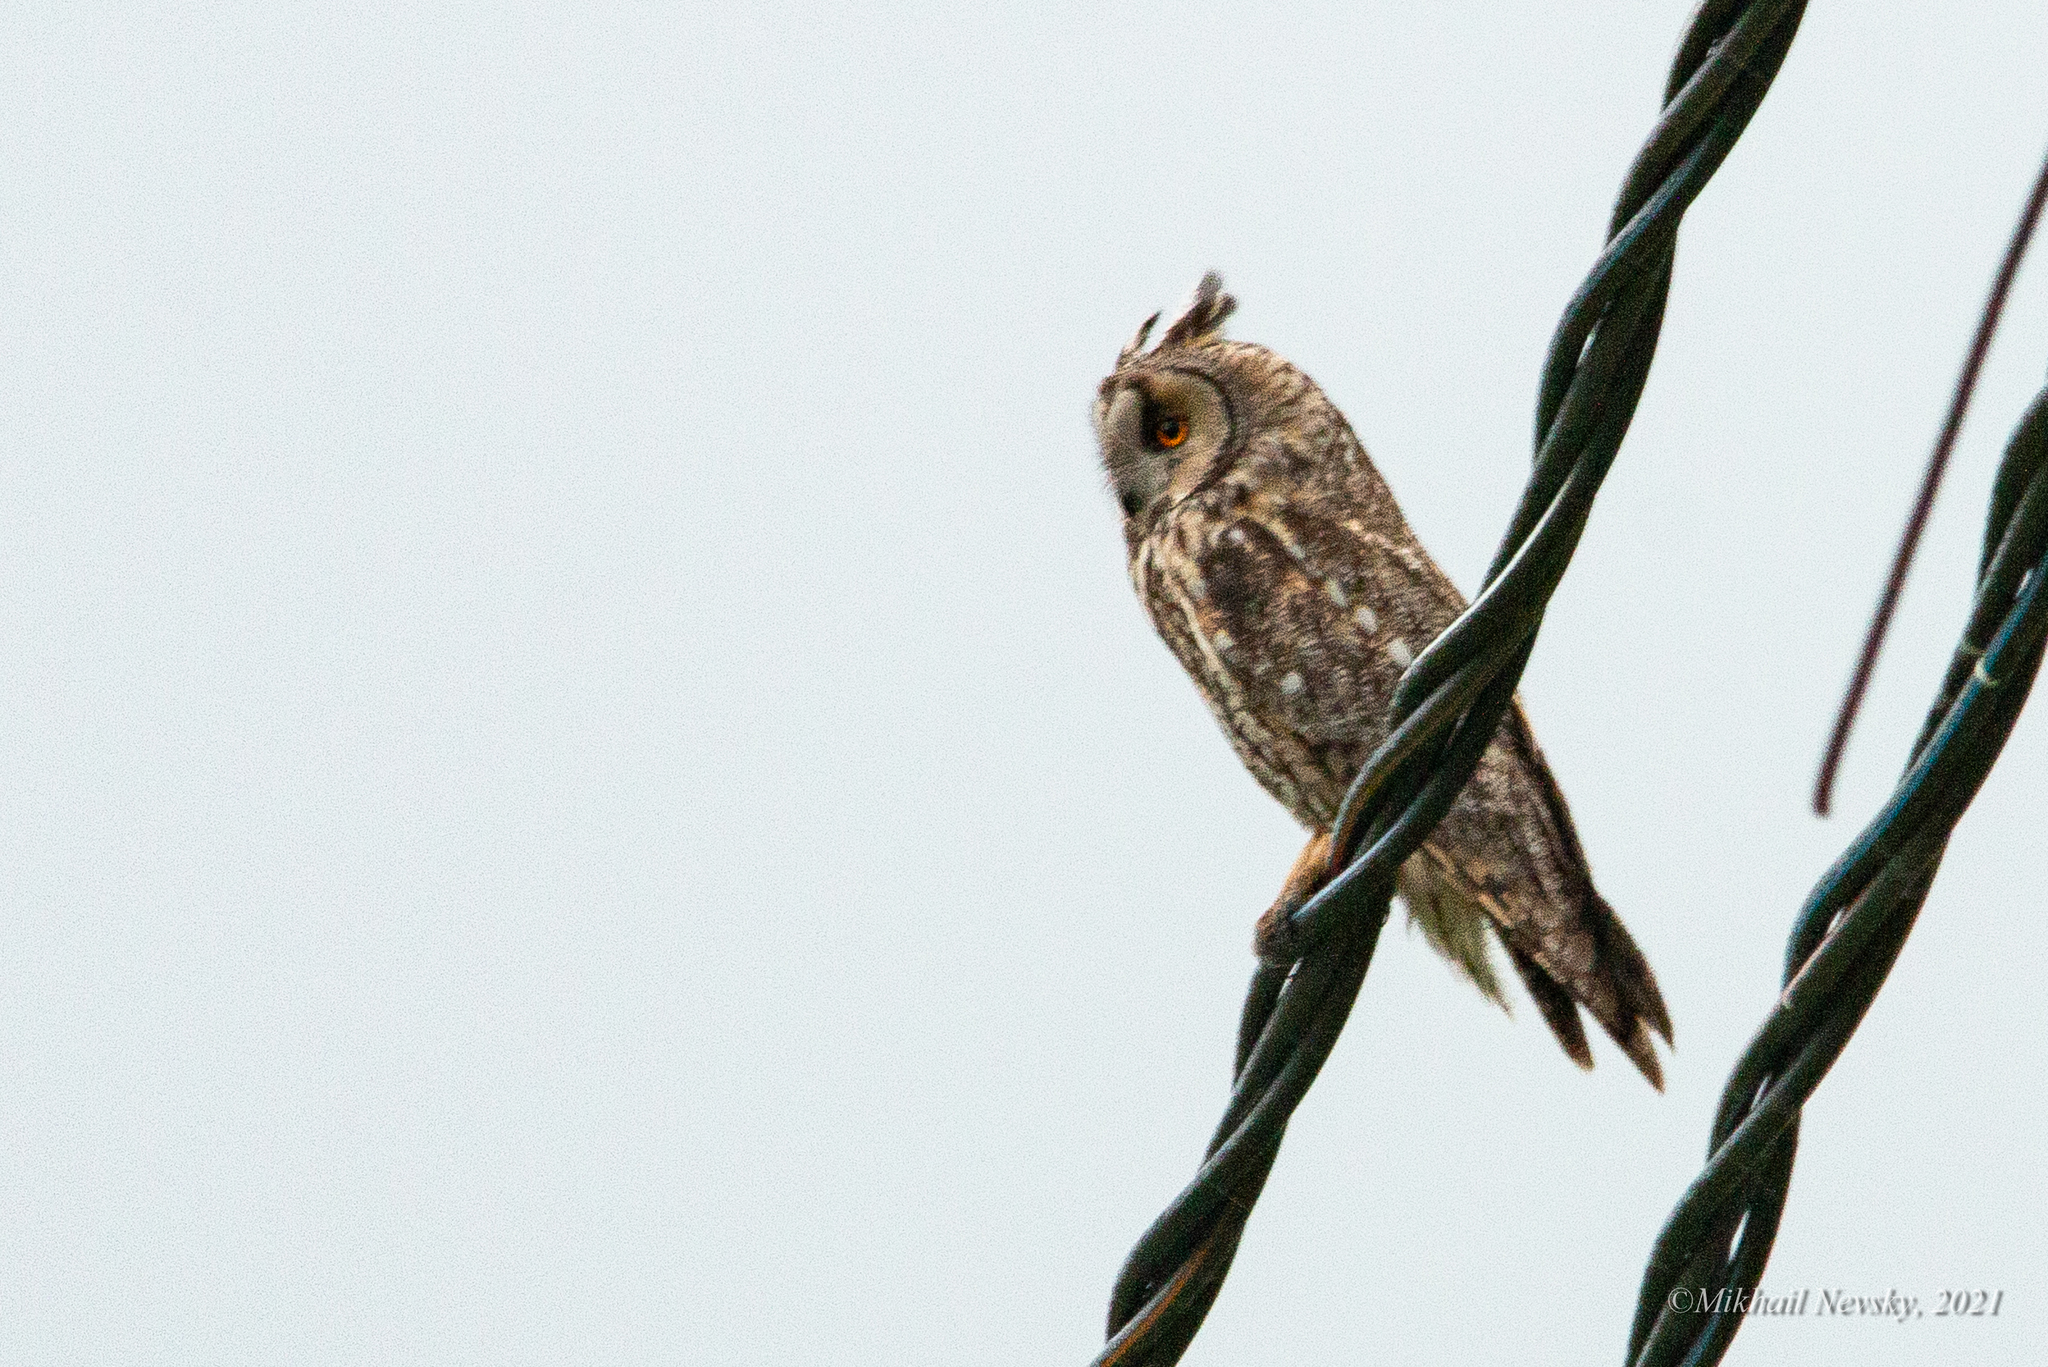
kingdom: Animalia
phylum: Chordata
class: Aves
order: Strigiformes
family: Strigidae
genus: Asio
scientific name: Asio otus
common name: Long-eared owl
